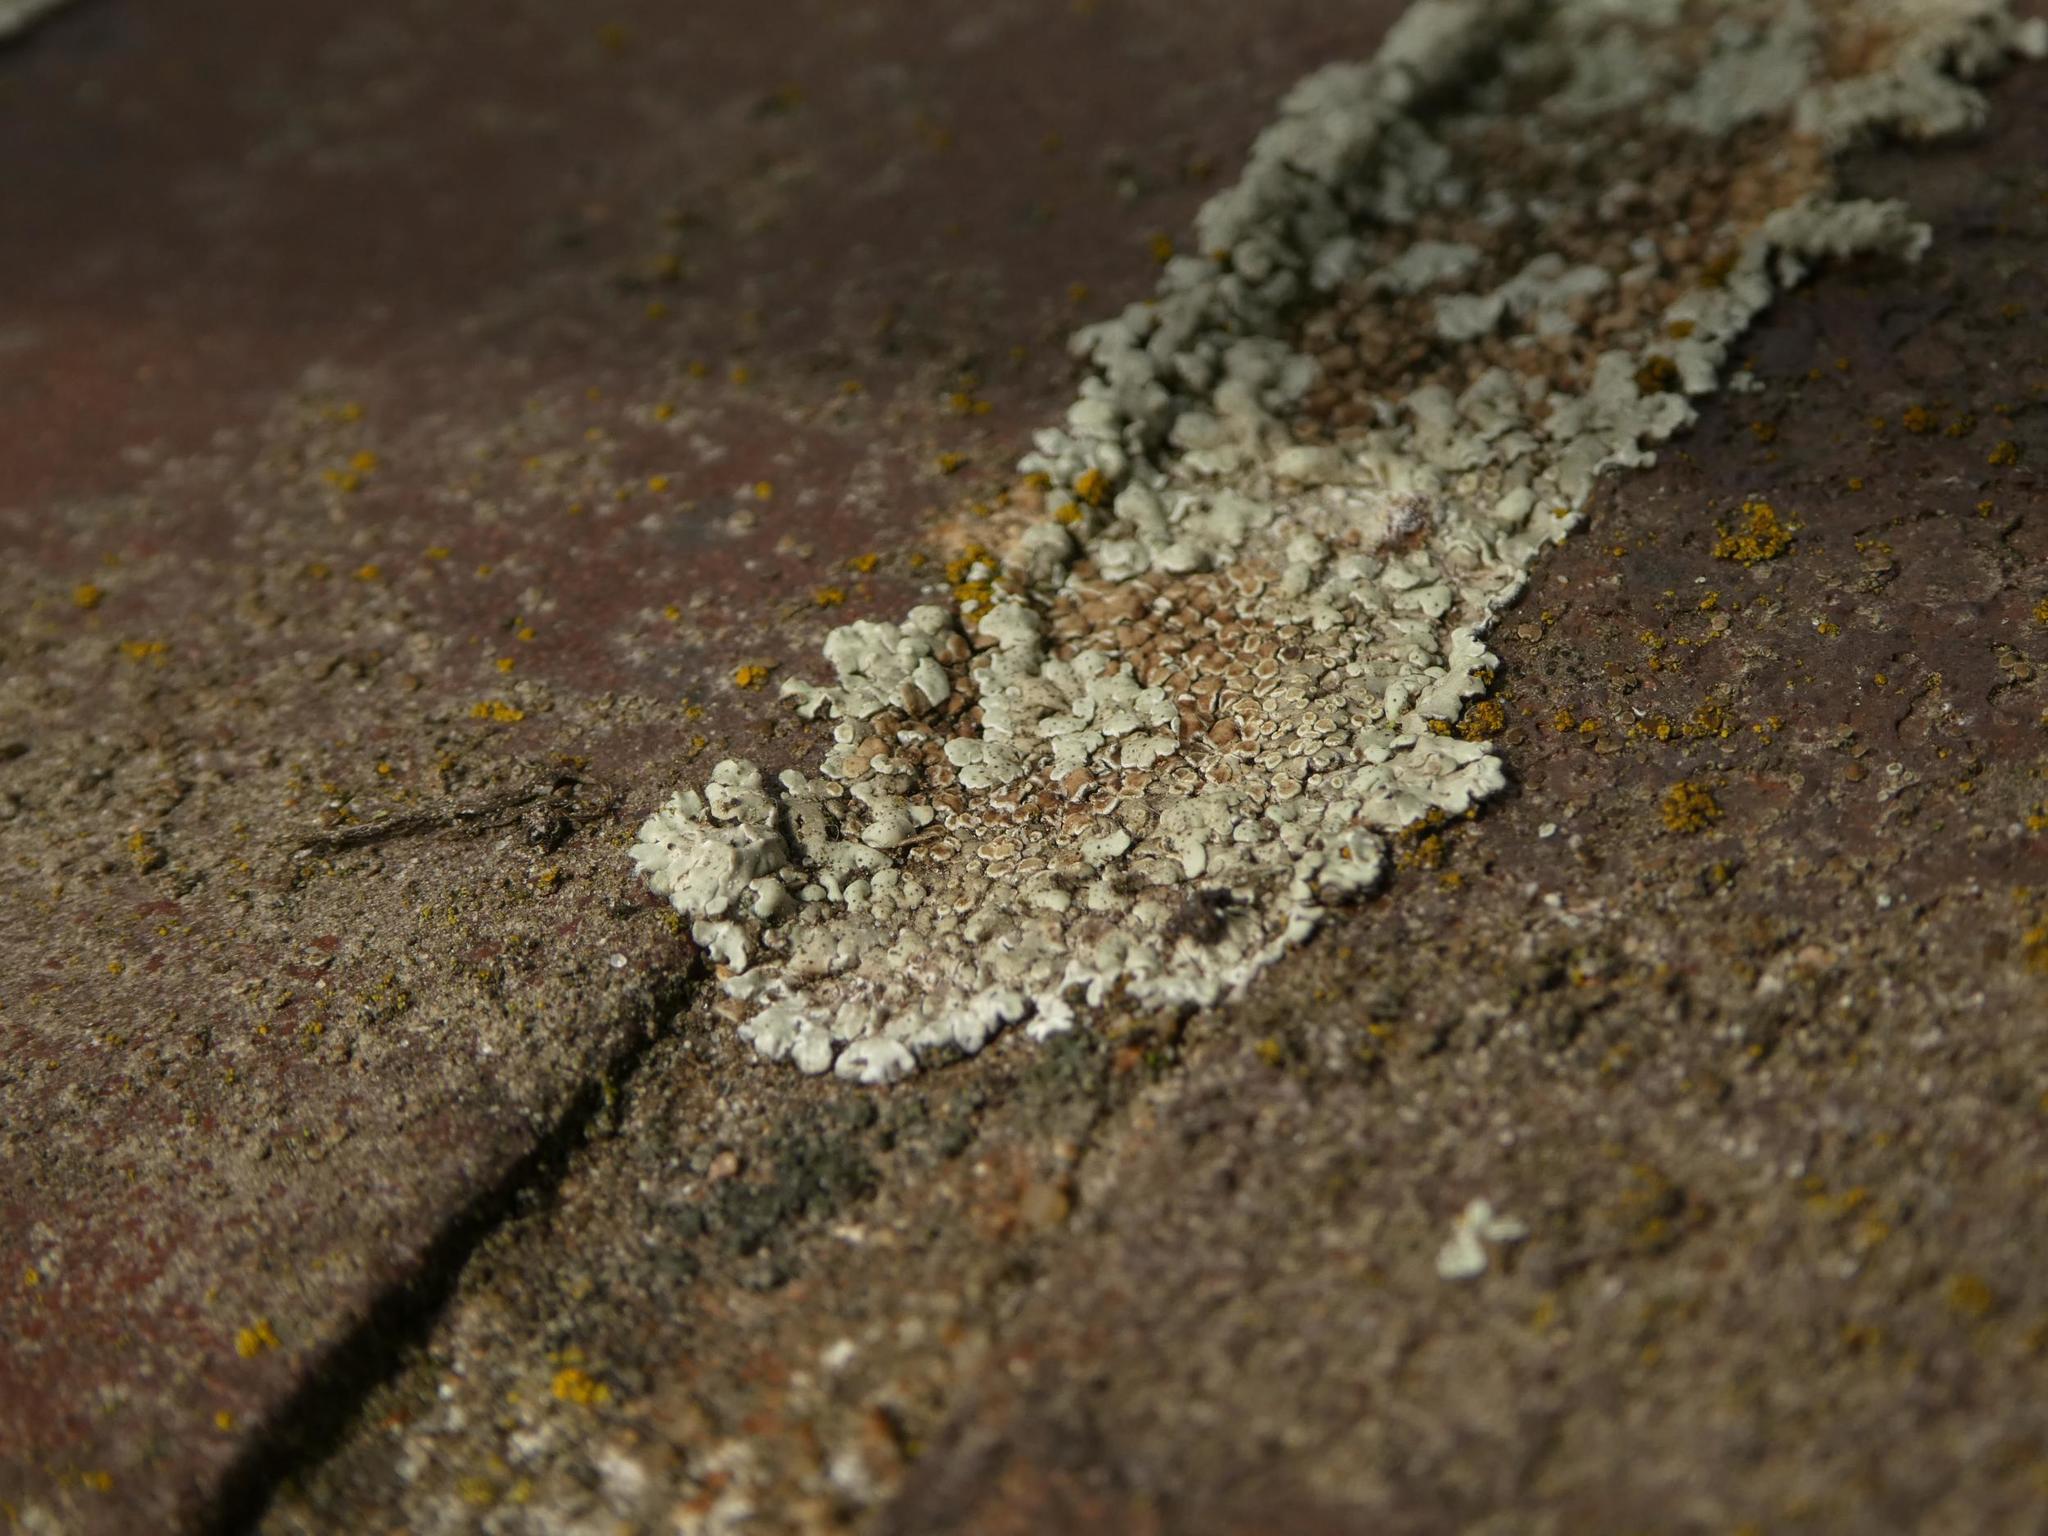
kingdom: Fungi
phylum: Ascomycota
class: Lecanoromycetes
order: Lecanorales
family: Lecanoraceae
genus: Protoparmeliopsis
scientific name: Protoparmeliopsis muralis
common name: Stonewall rim lichen
